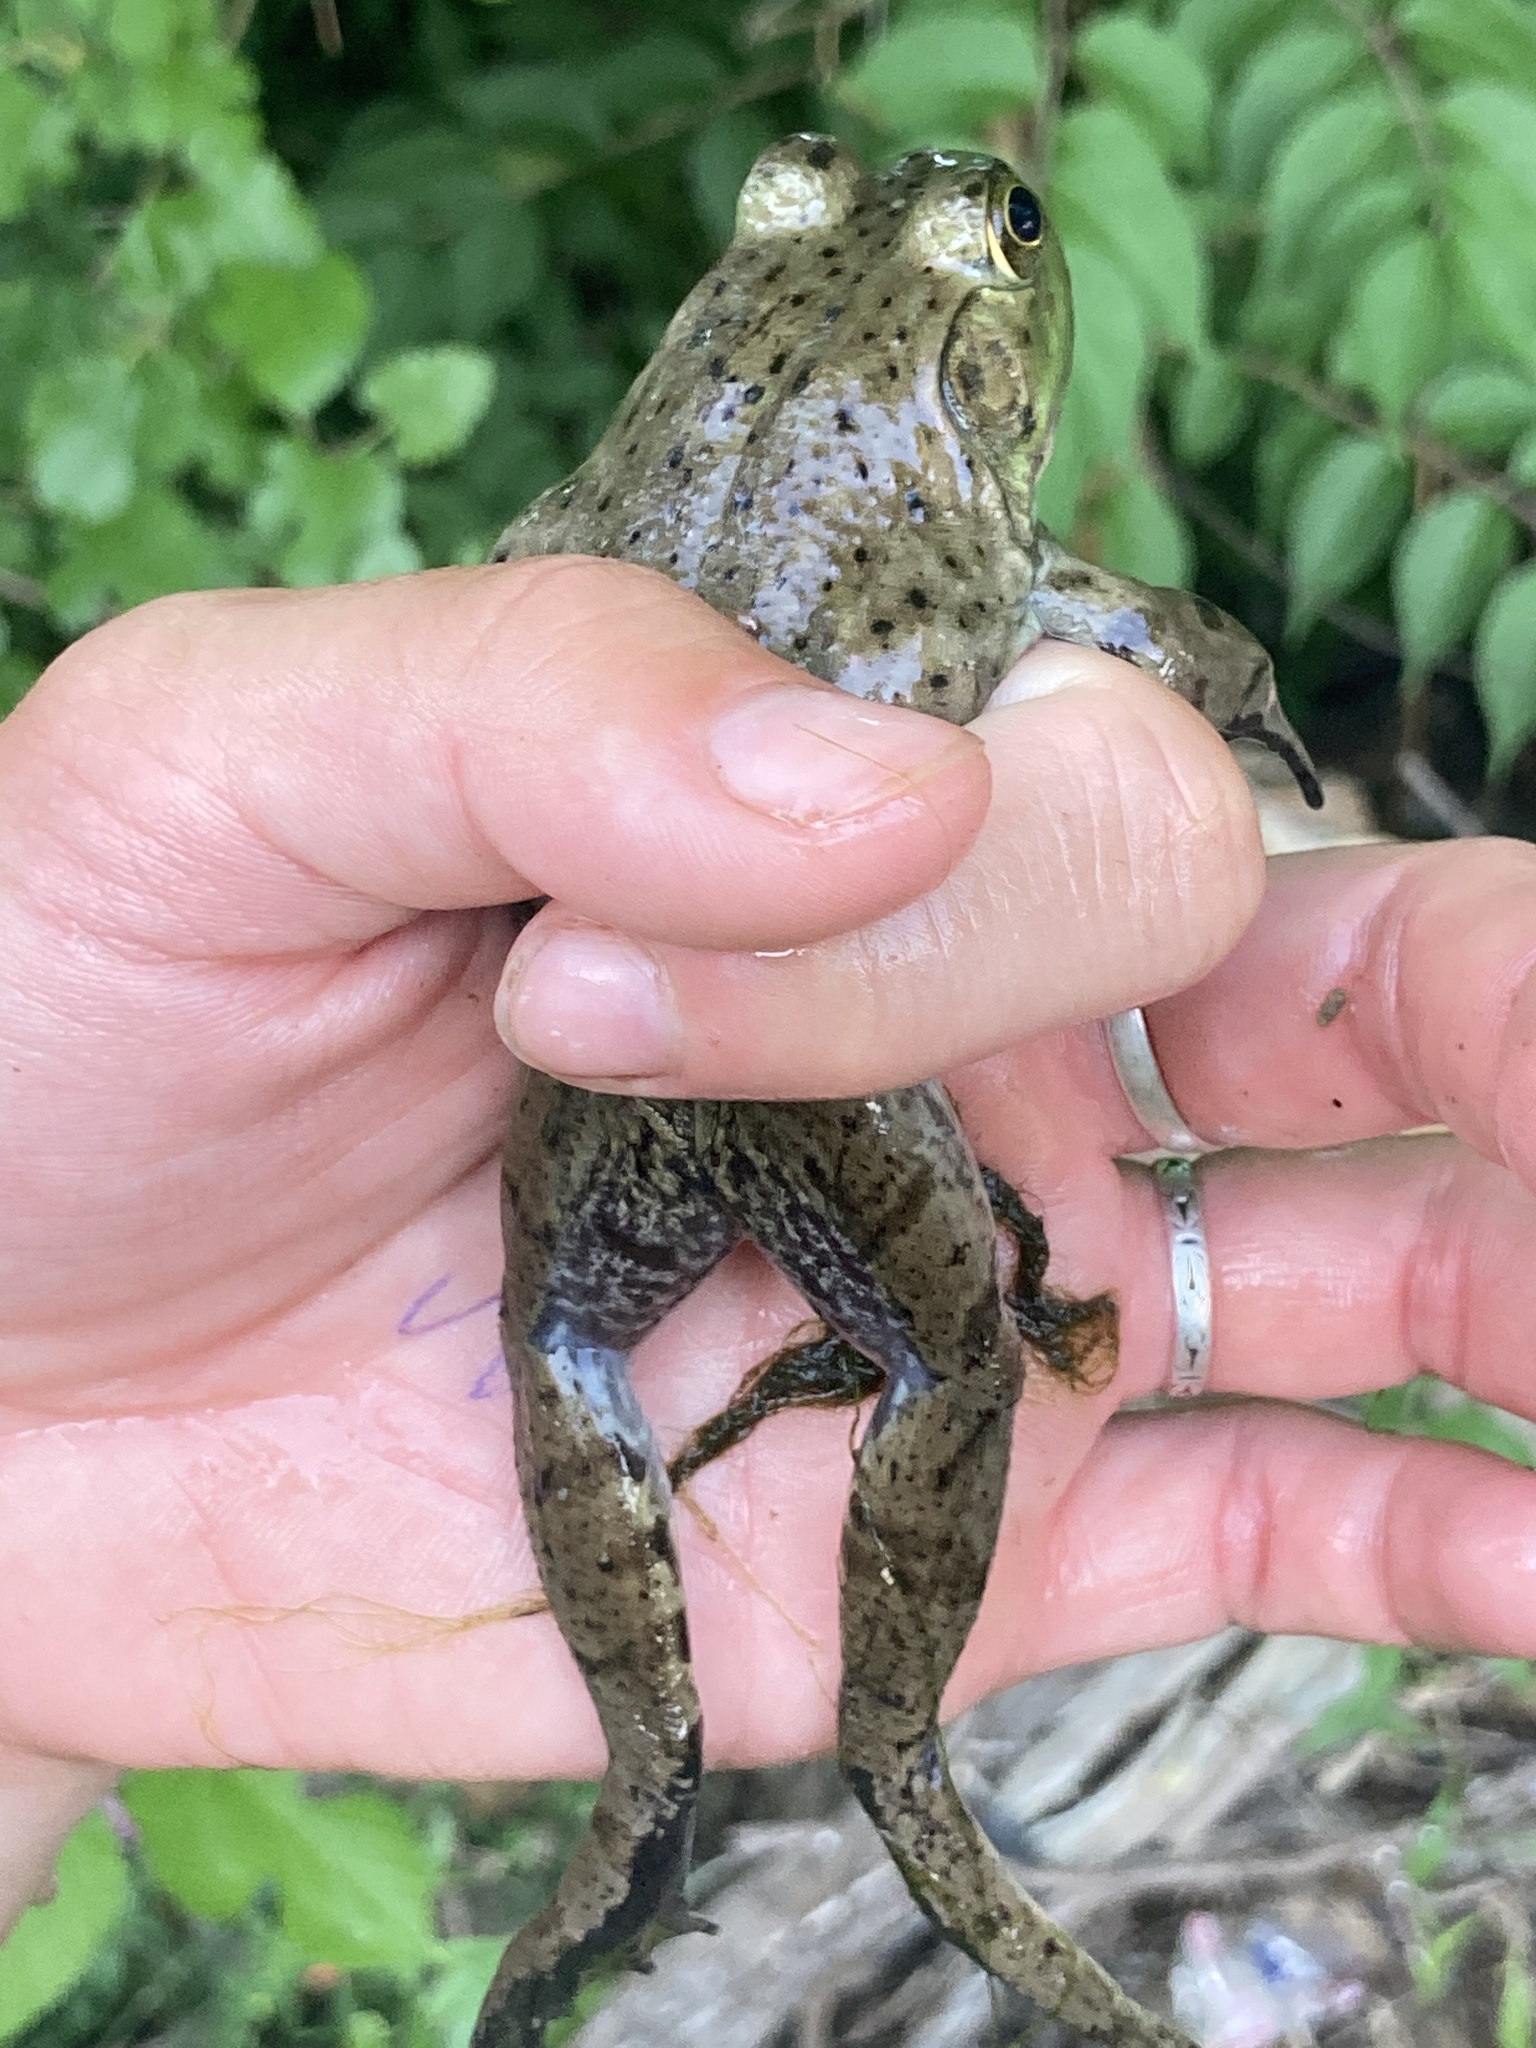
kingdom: Animalia
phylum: Chordata
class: Amphibia
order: Anura
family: Ranidae
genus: Lithobates
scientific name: Lithobates catesbeianus
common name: American bullfrog
